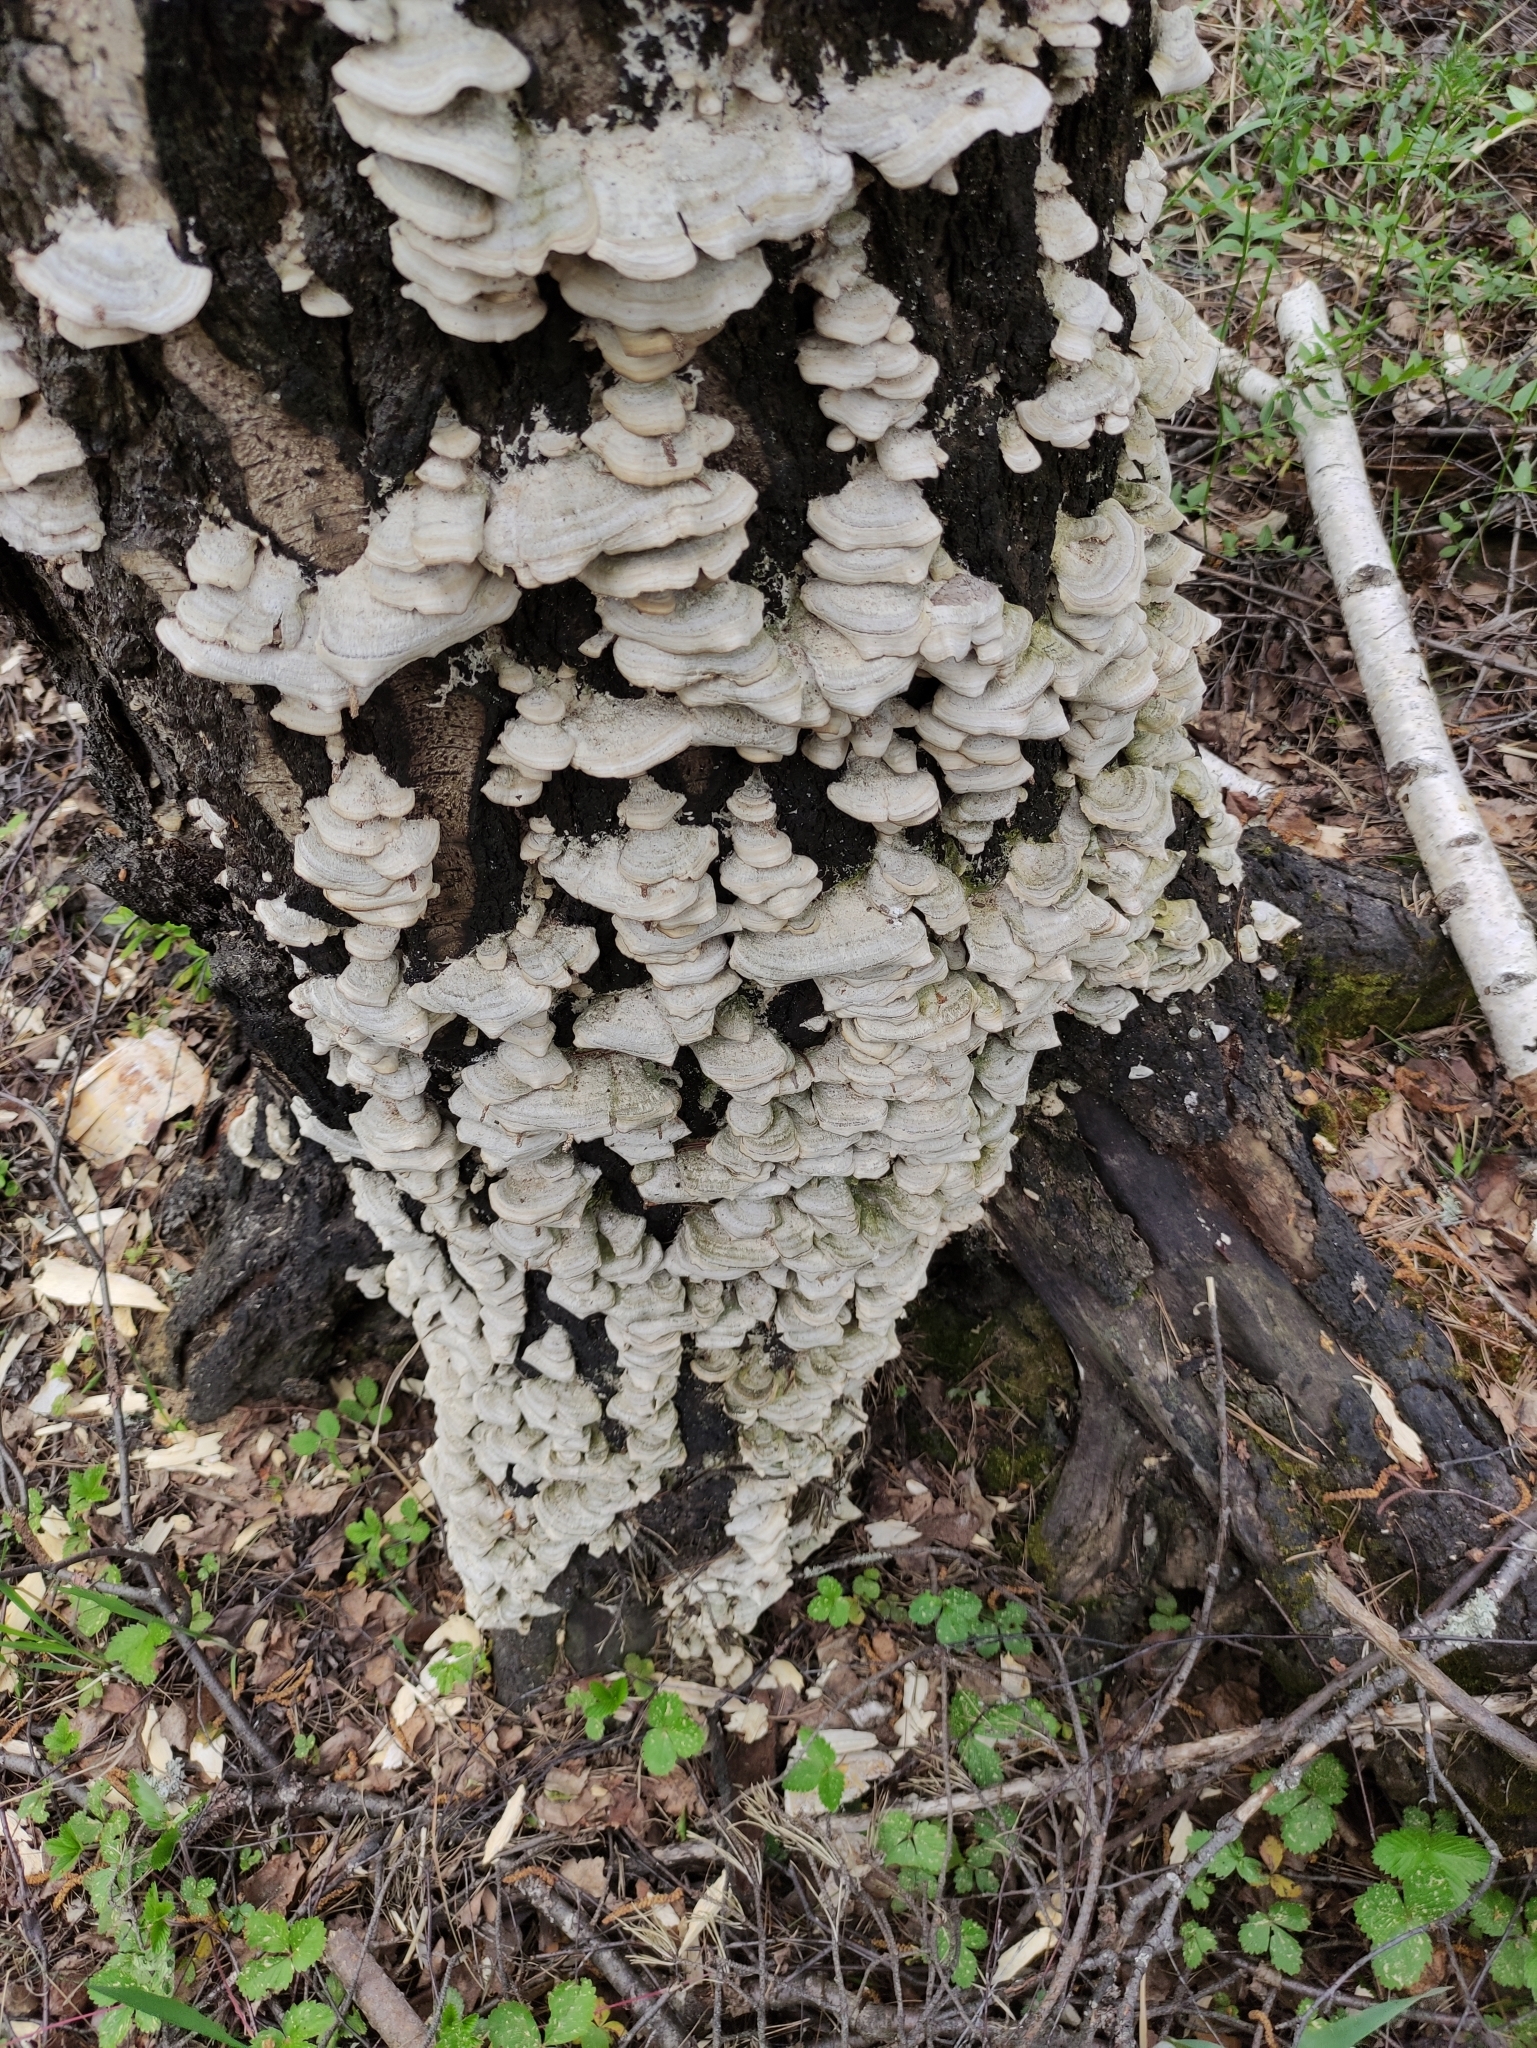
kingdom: Fungi
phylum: Basidiomycota
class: Agaricomycetes
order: Hymenochaetales
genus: Trichaptum
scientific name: Trichaptum biforme
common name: Violet-toothed polypore
